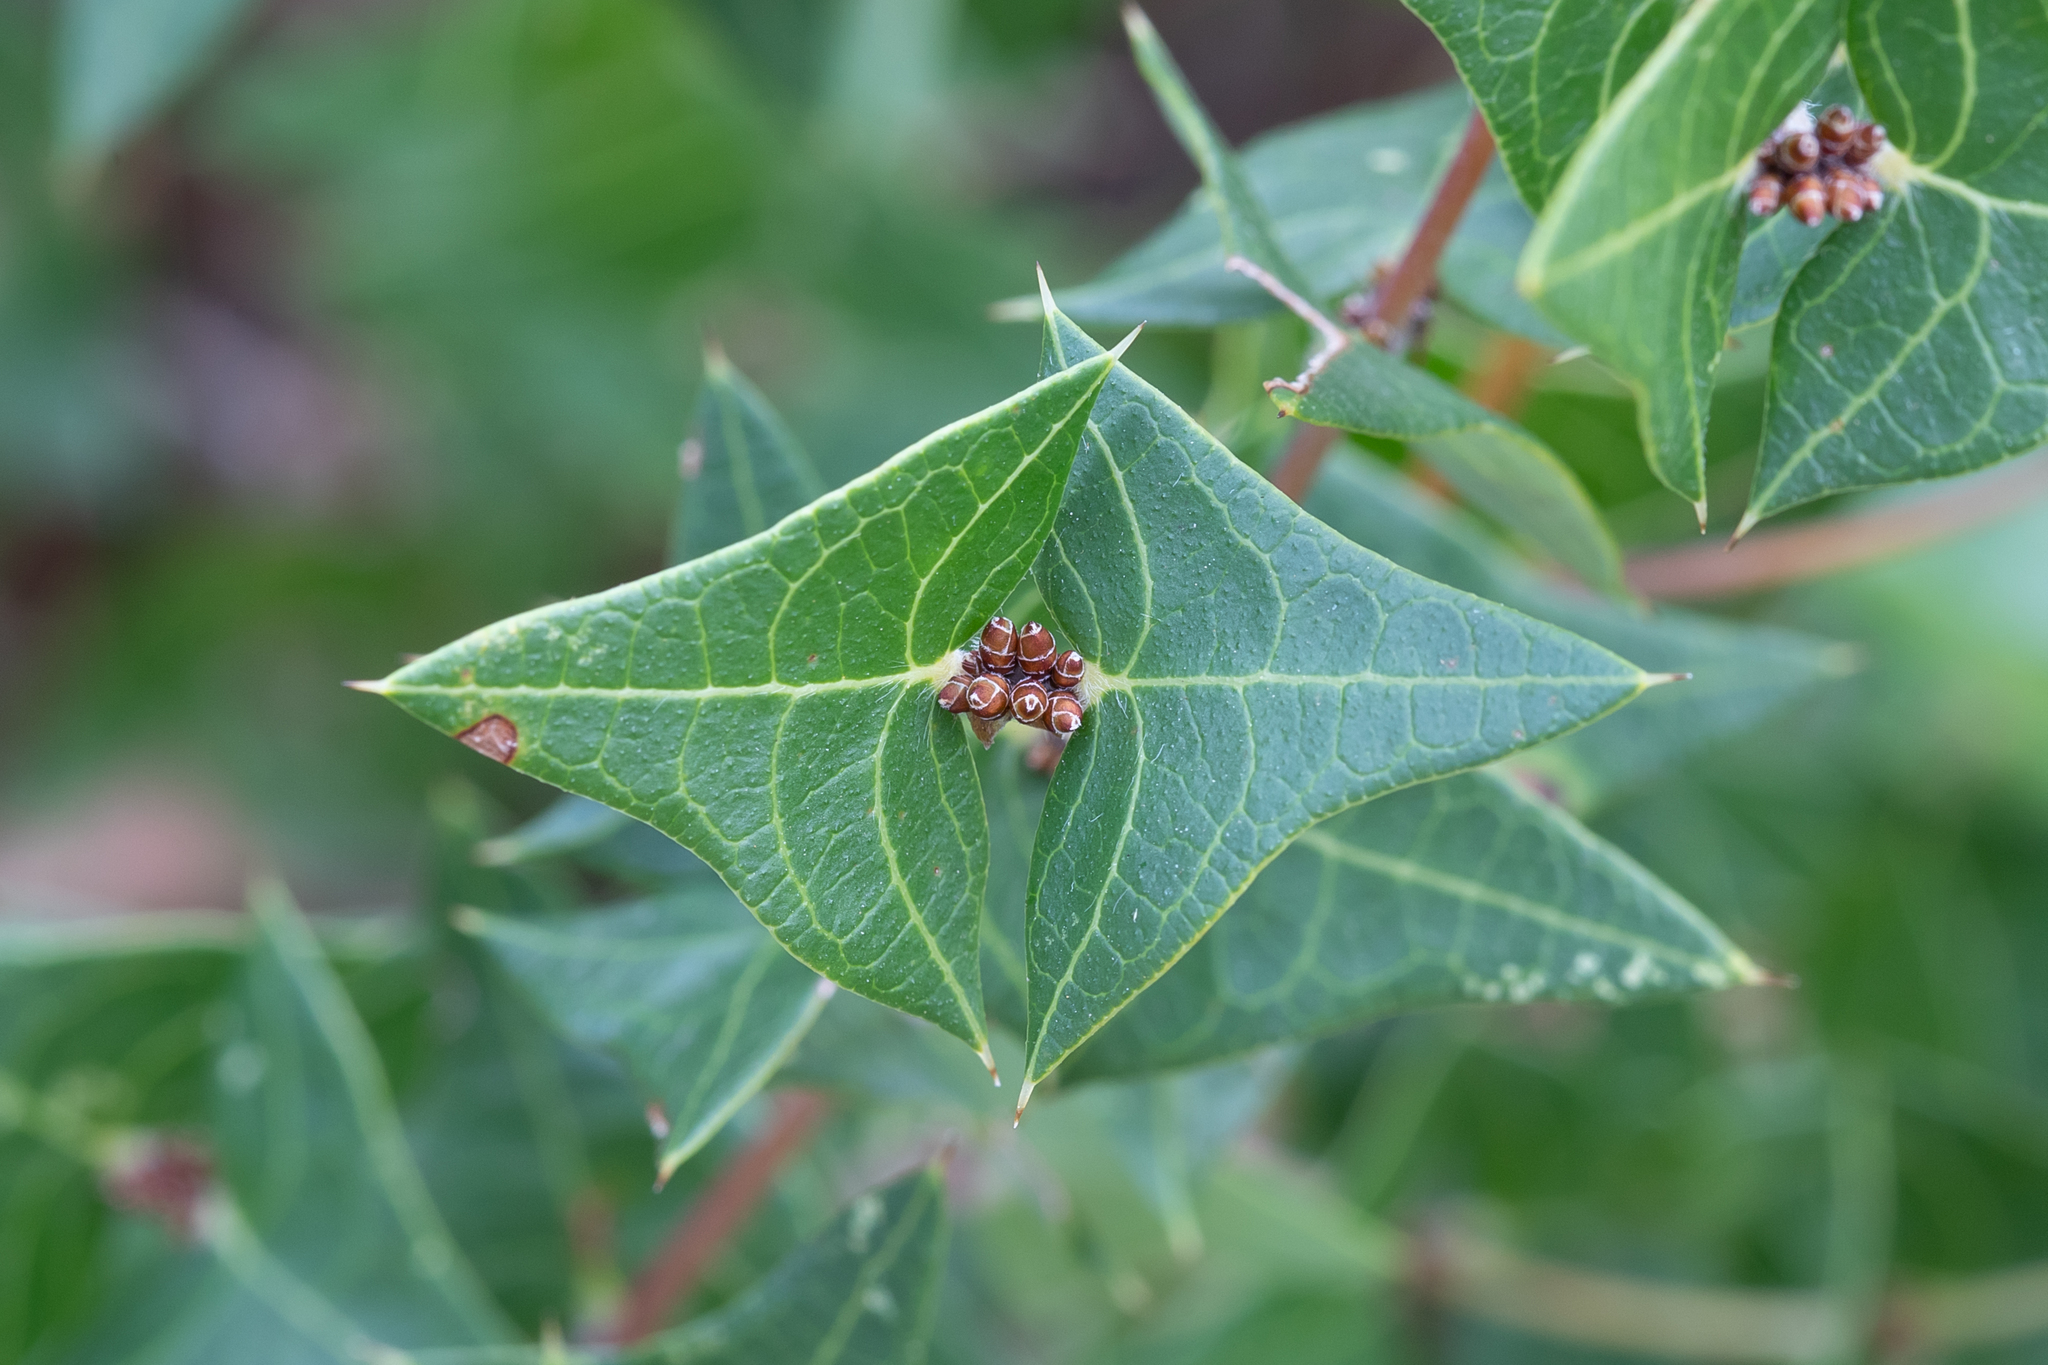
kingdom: Plantae
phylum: Tracheophyta
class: Magnoliopsida
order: Fabales
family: Fabaceae
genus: Platylobium
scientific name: Platylobium obtusangulum
